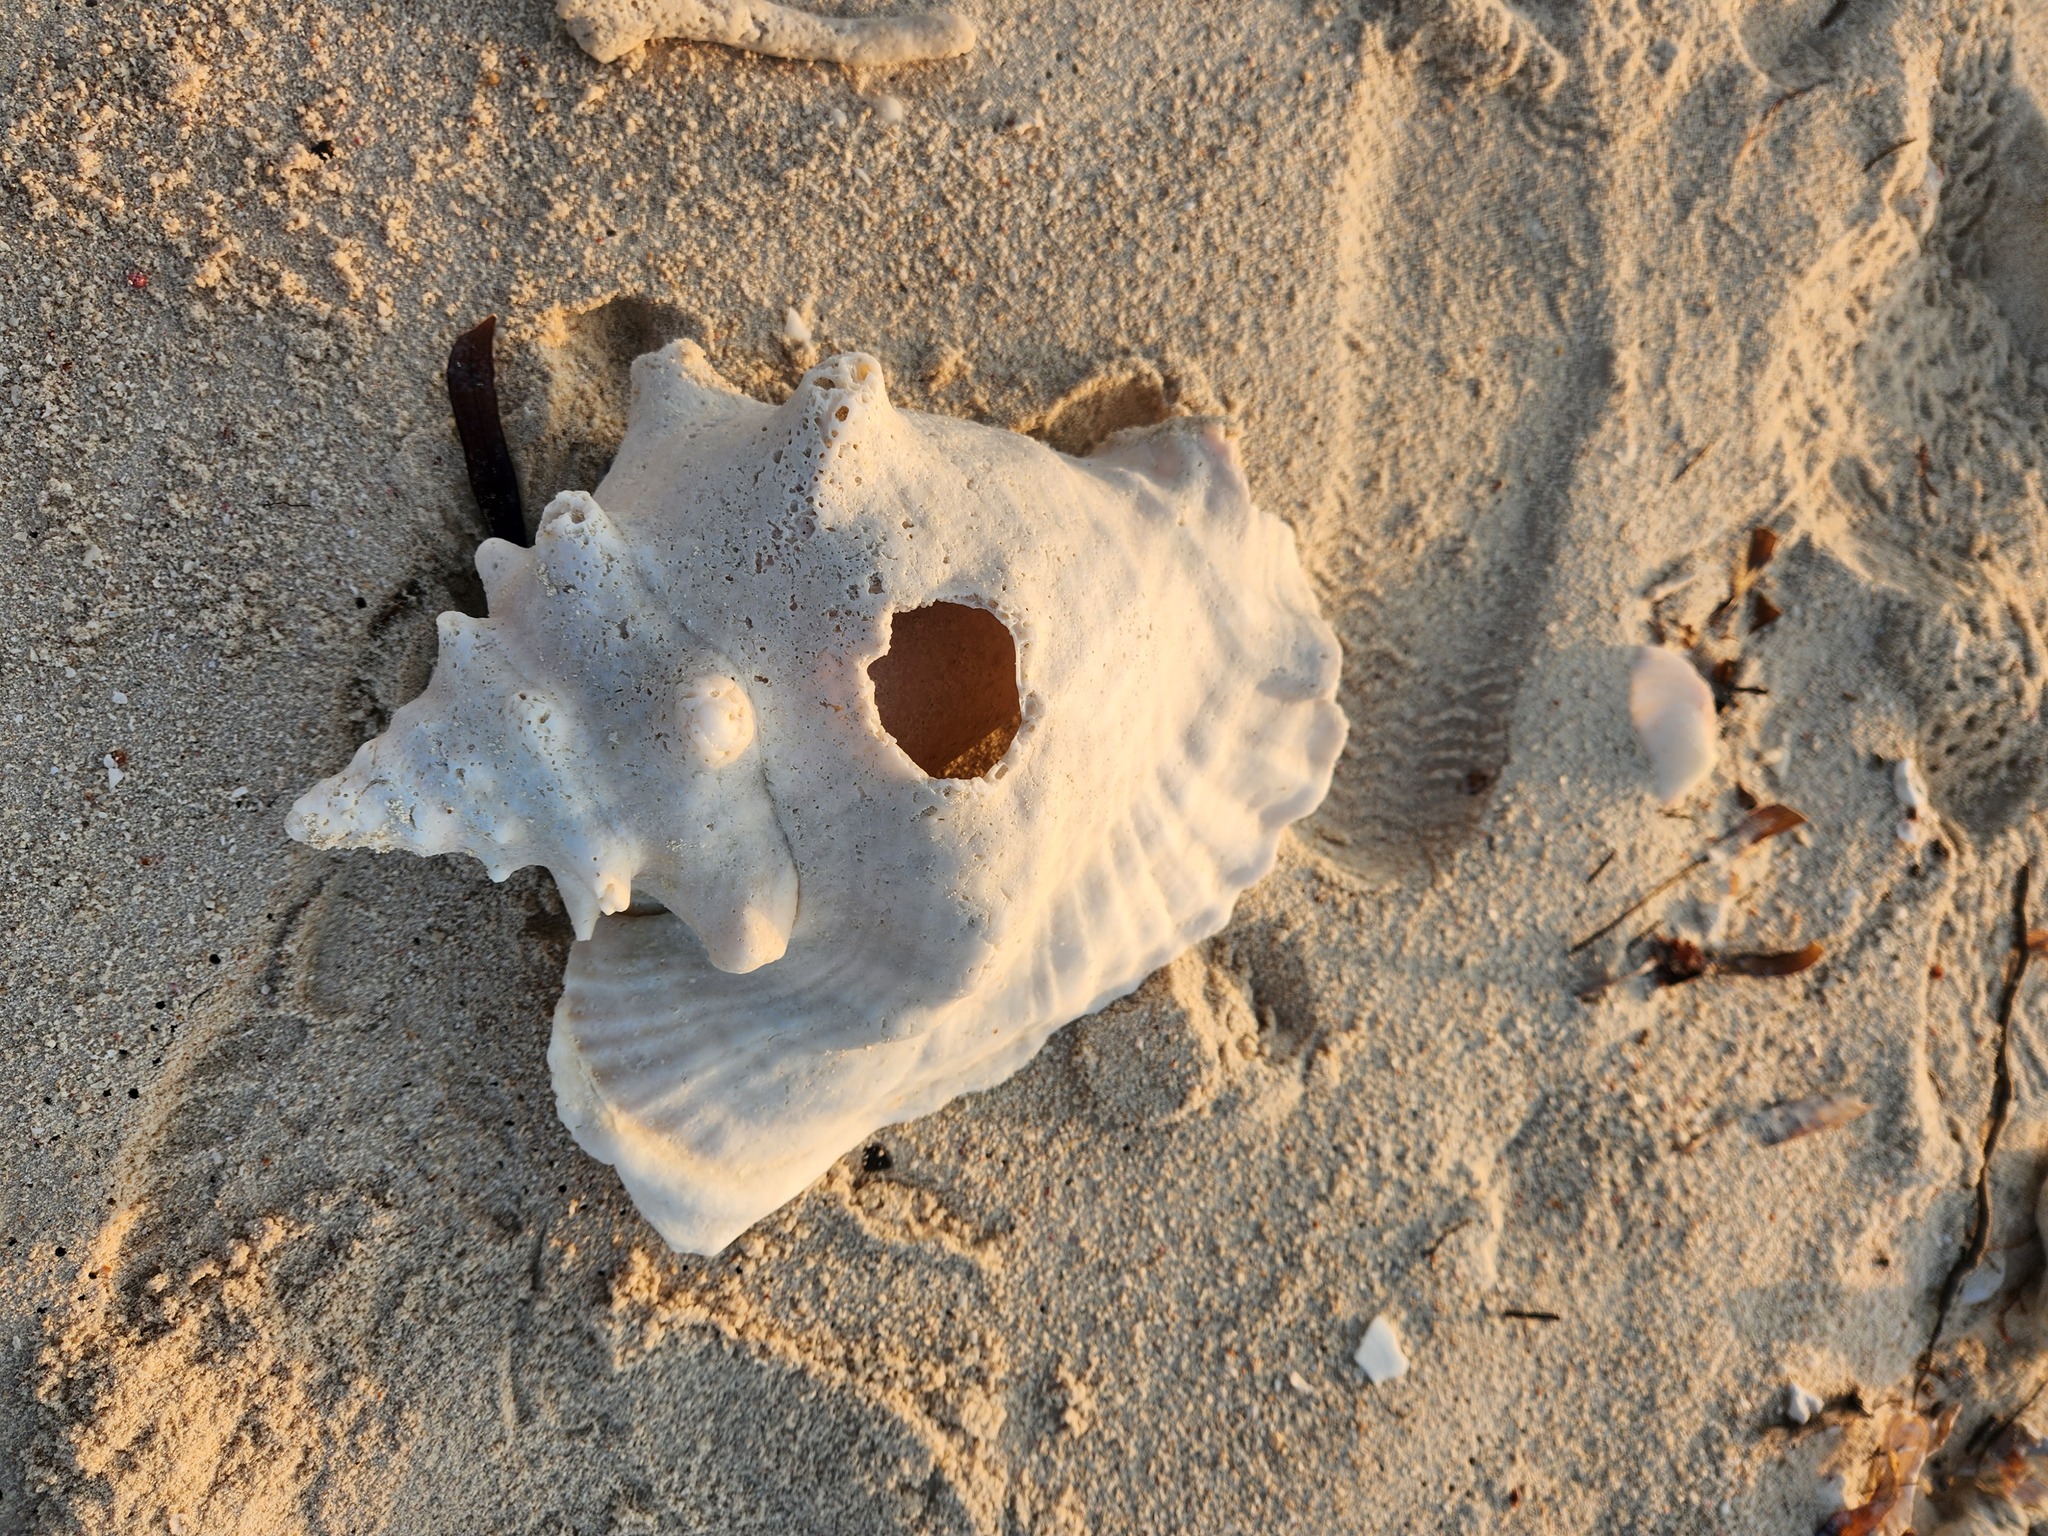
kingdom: Animalia
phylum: Mollusca
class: Gastropoda
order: Littorinimorpha
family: Strombidae
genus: Aliger
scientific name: Aliger gigas
